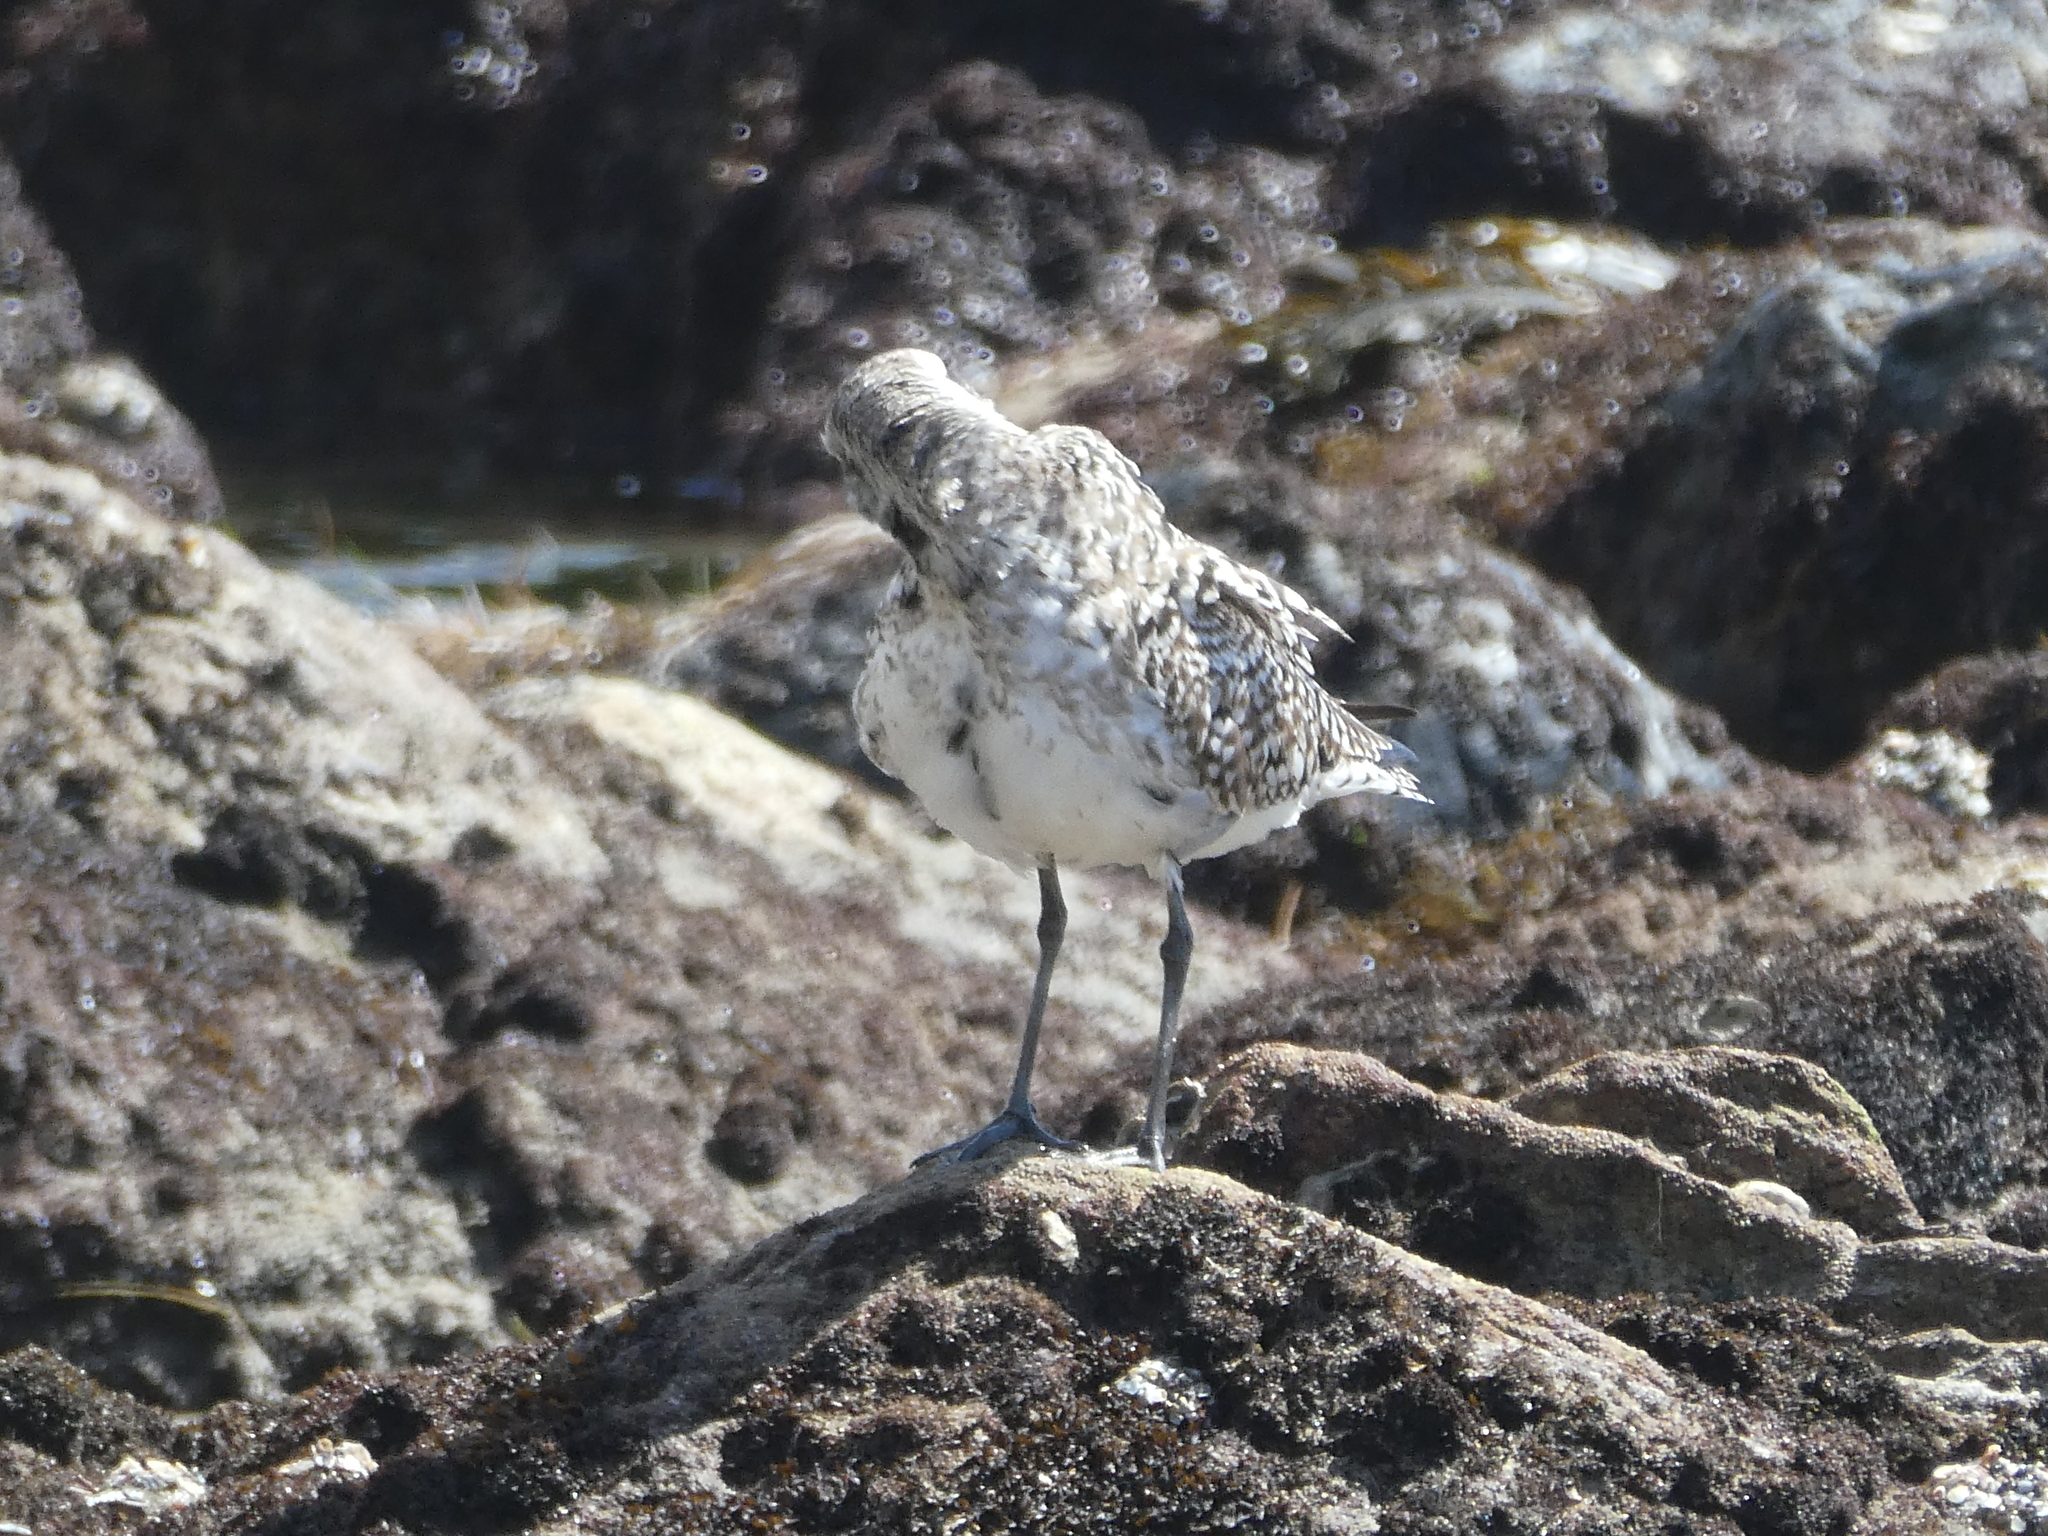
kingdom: Animalia
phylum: Chordata
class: Aves
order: Charadriiformes
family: Charadriidae
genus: Pluvialis
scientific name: Pluvialis squatarola
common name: Grey plover
